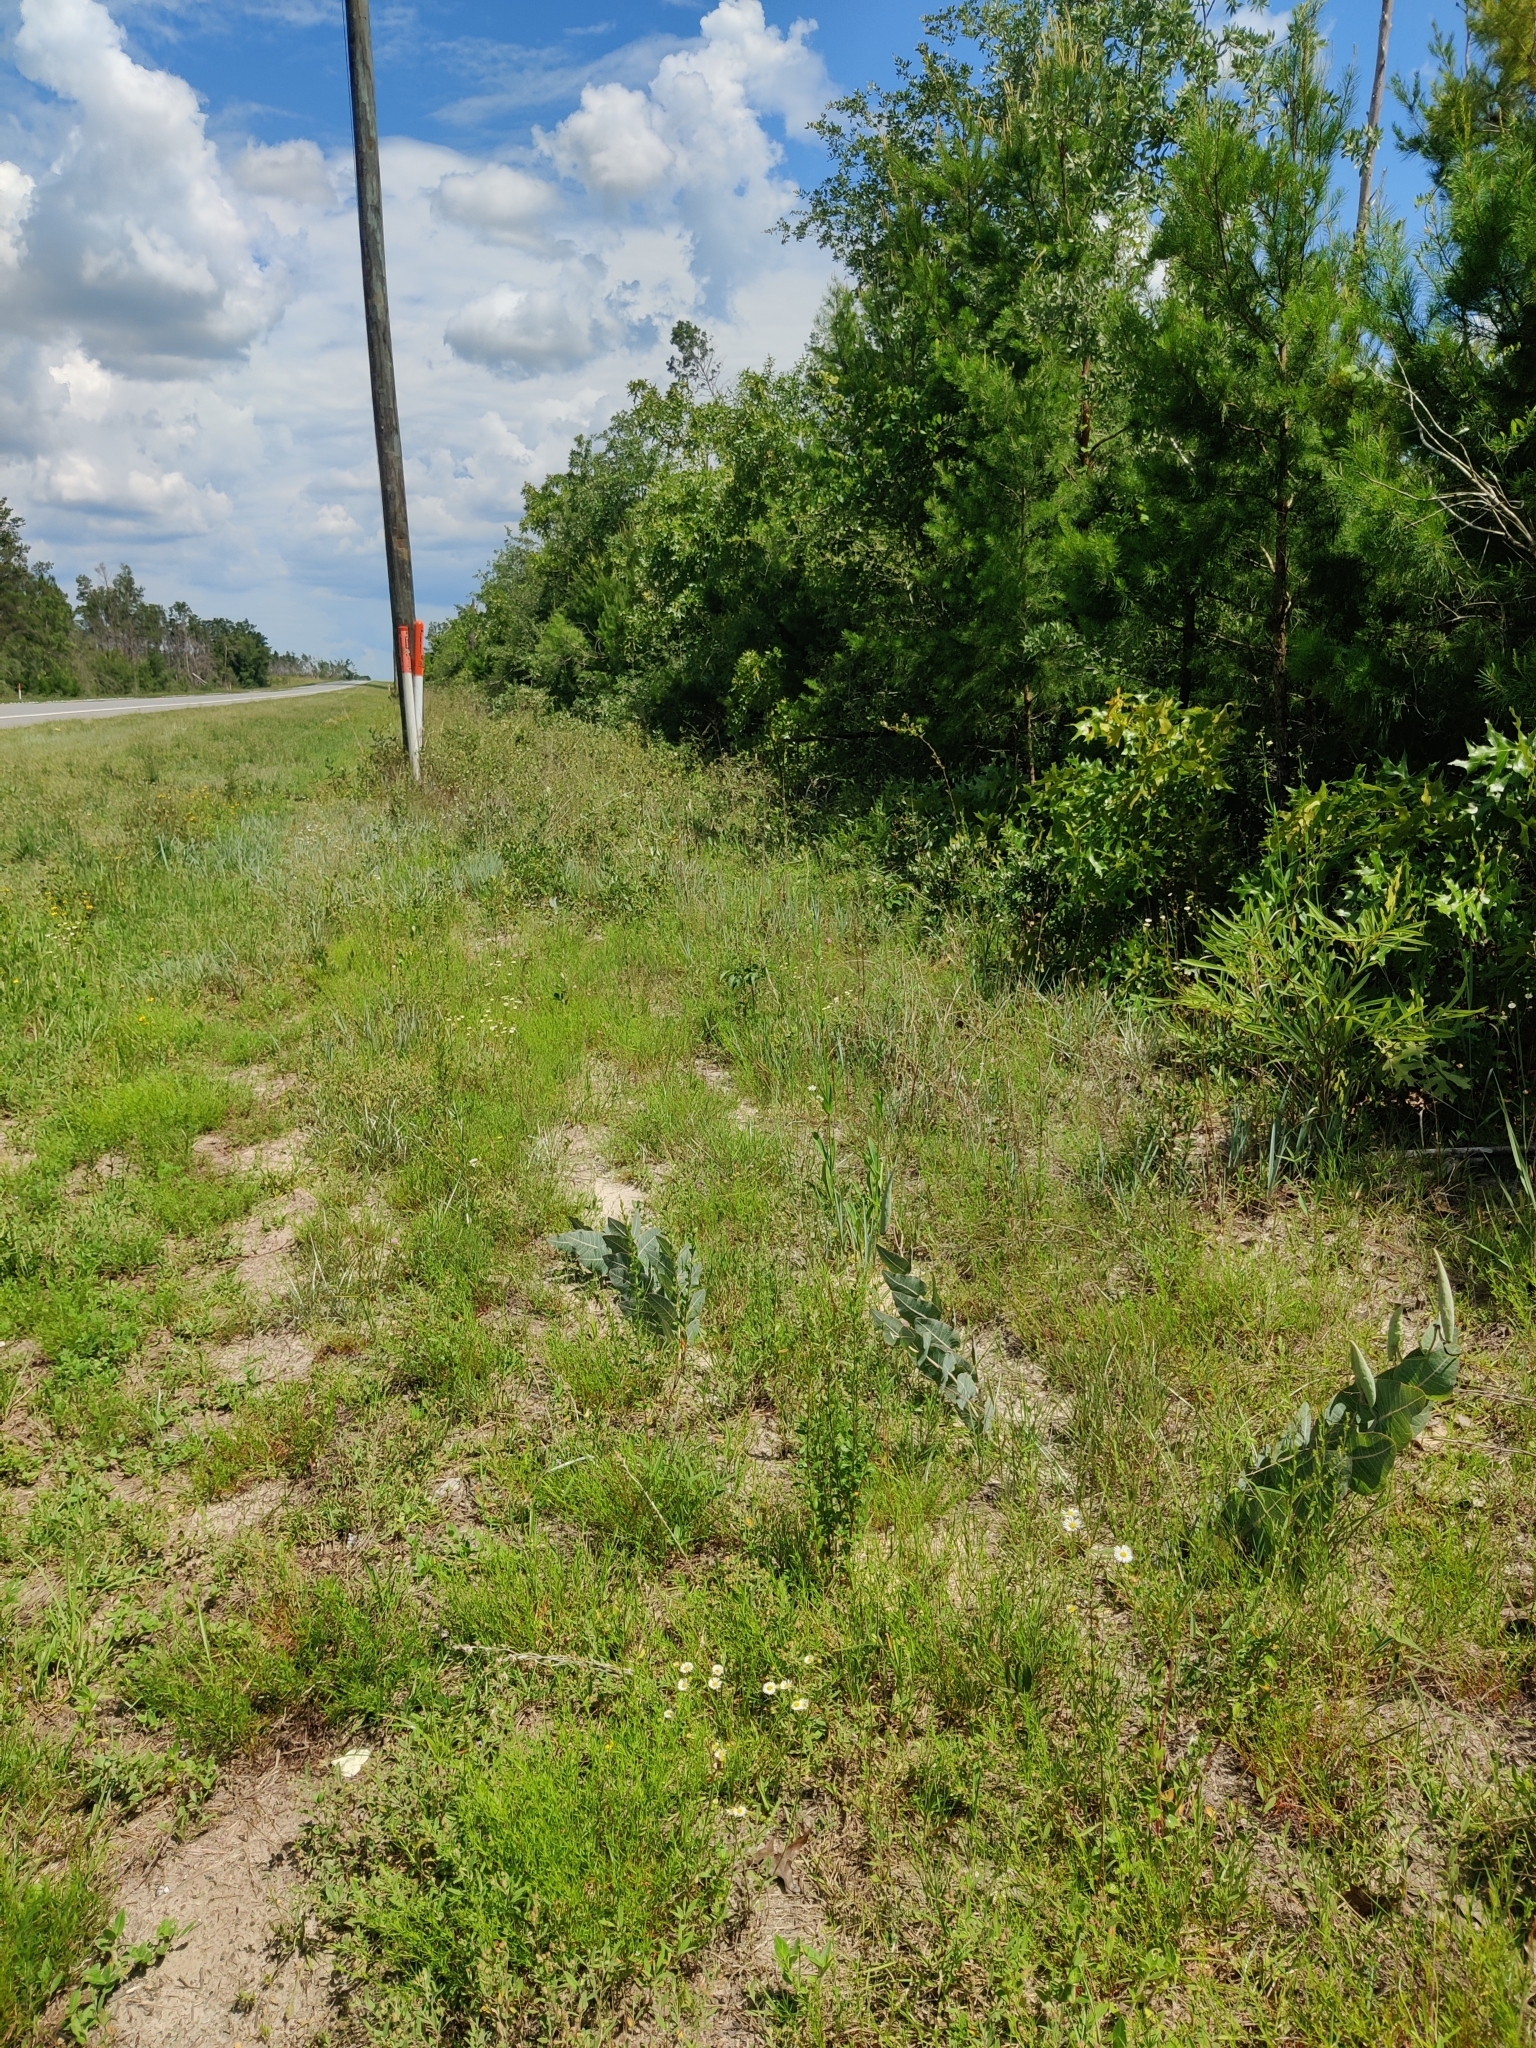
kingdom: Plantae
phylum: Tracheophyta
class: Magnoliopsida
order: Gentianales
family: Apocynaceae
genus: Asclepias
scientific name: Asclepias humistrata
